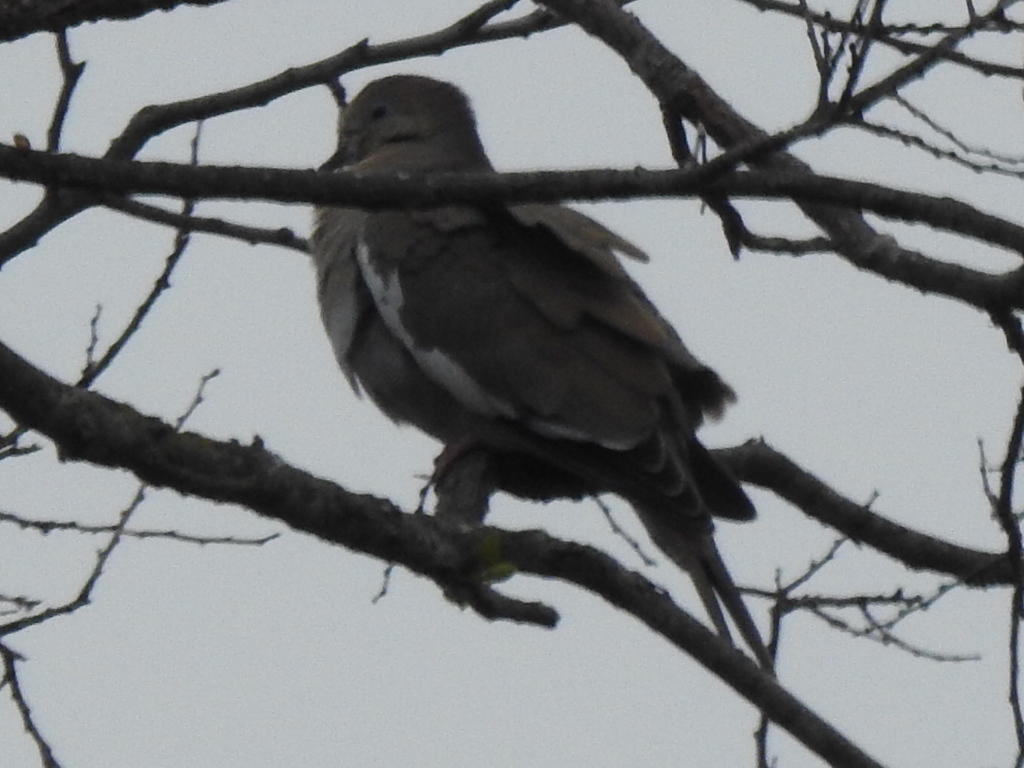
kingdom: Animalia
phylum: Chordata
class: Aves
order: Columbiformes
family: Columbidae
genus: Zenaida
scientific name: Zenaida asiatica
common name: White-winged dove
